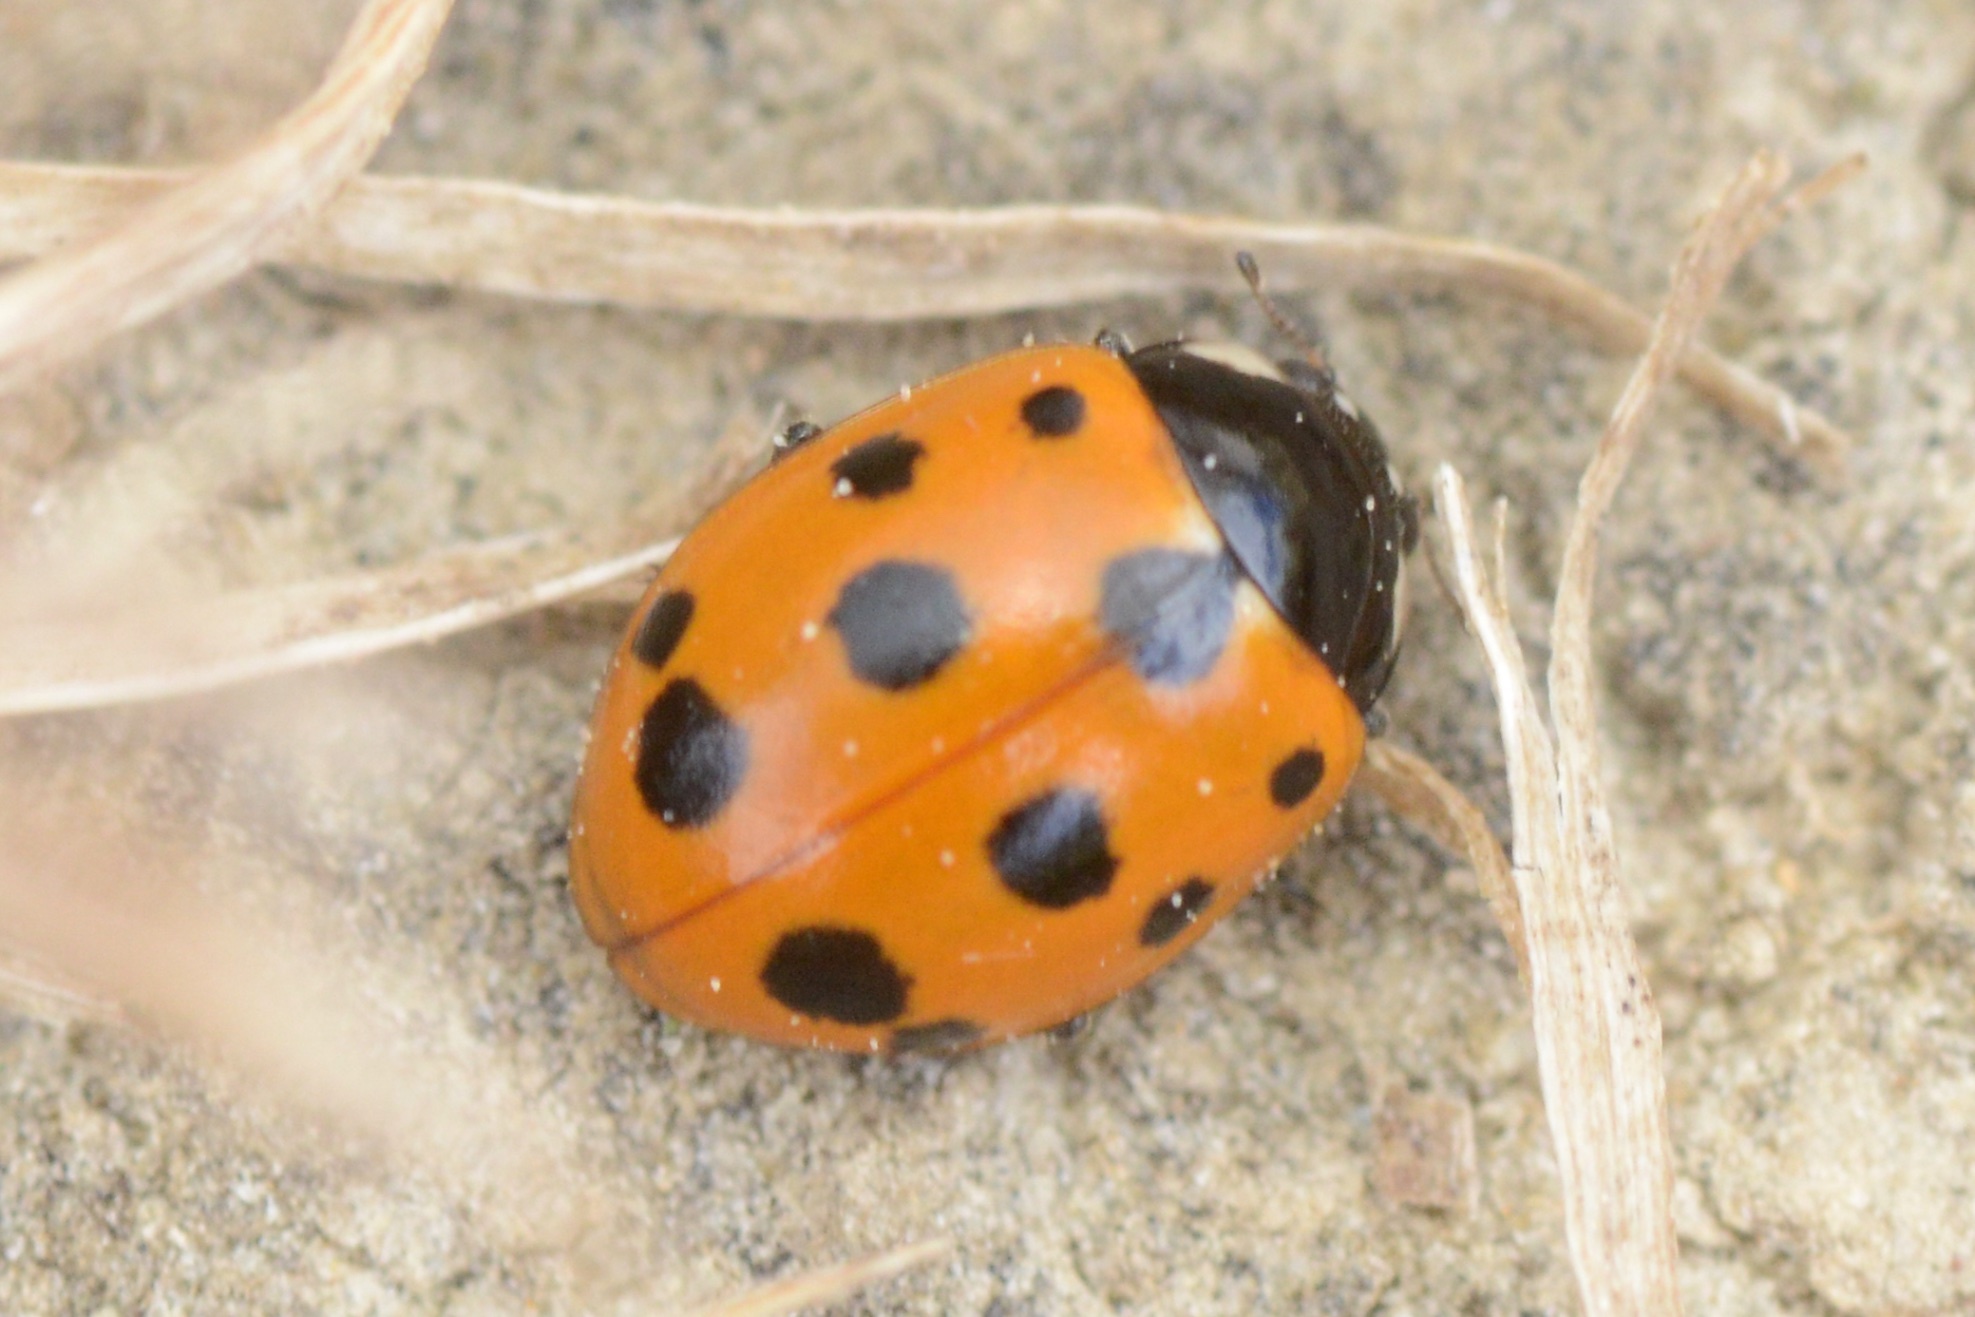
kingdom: Animalia
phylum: Arthropoda
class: Insecta
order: Coleoptera
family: Coccinellidae
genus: Coccinella
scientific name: Coccinella undecimpunctata
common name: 11-spot ladybird
